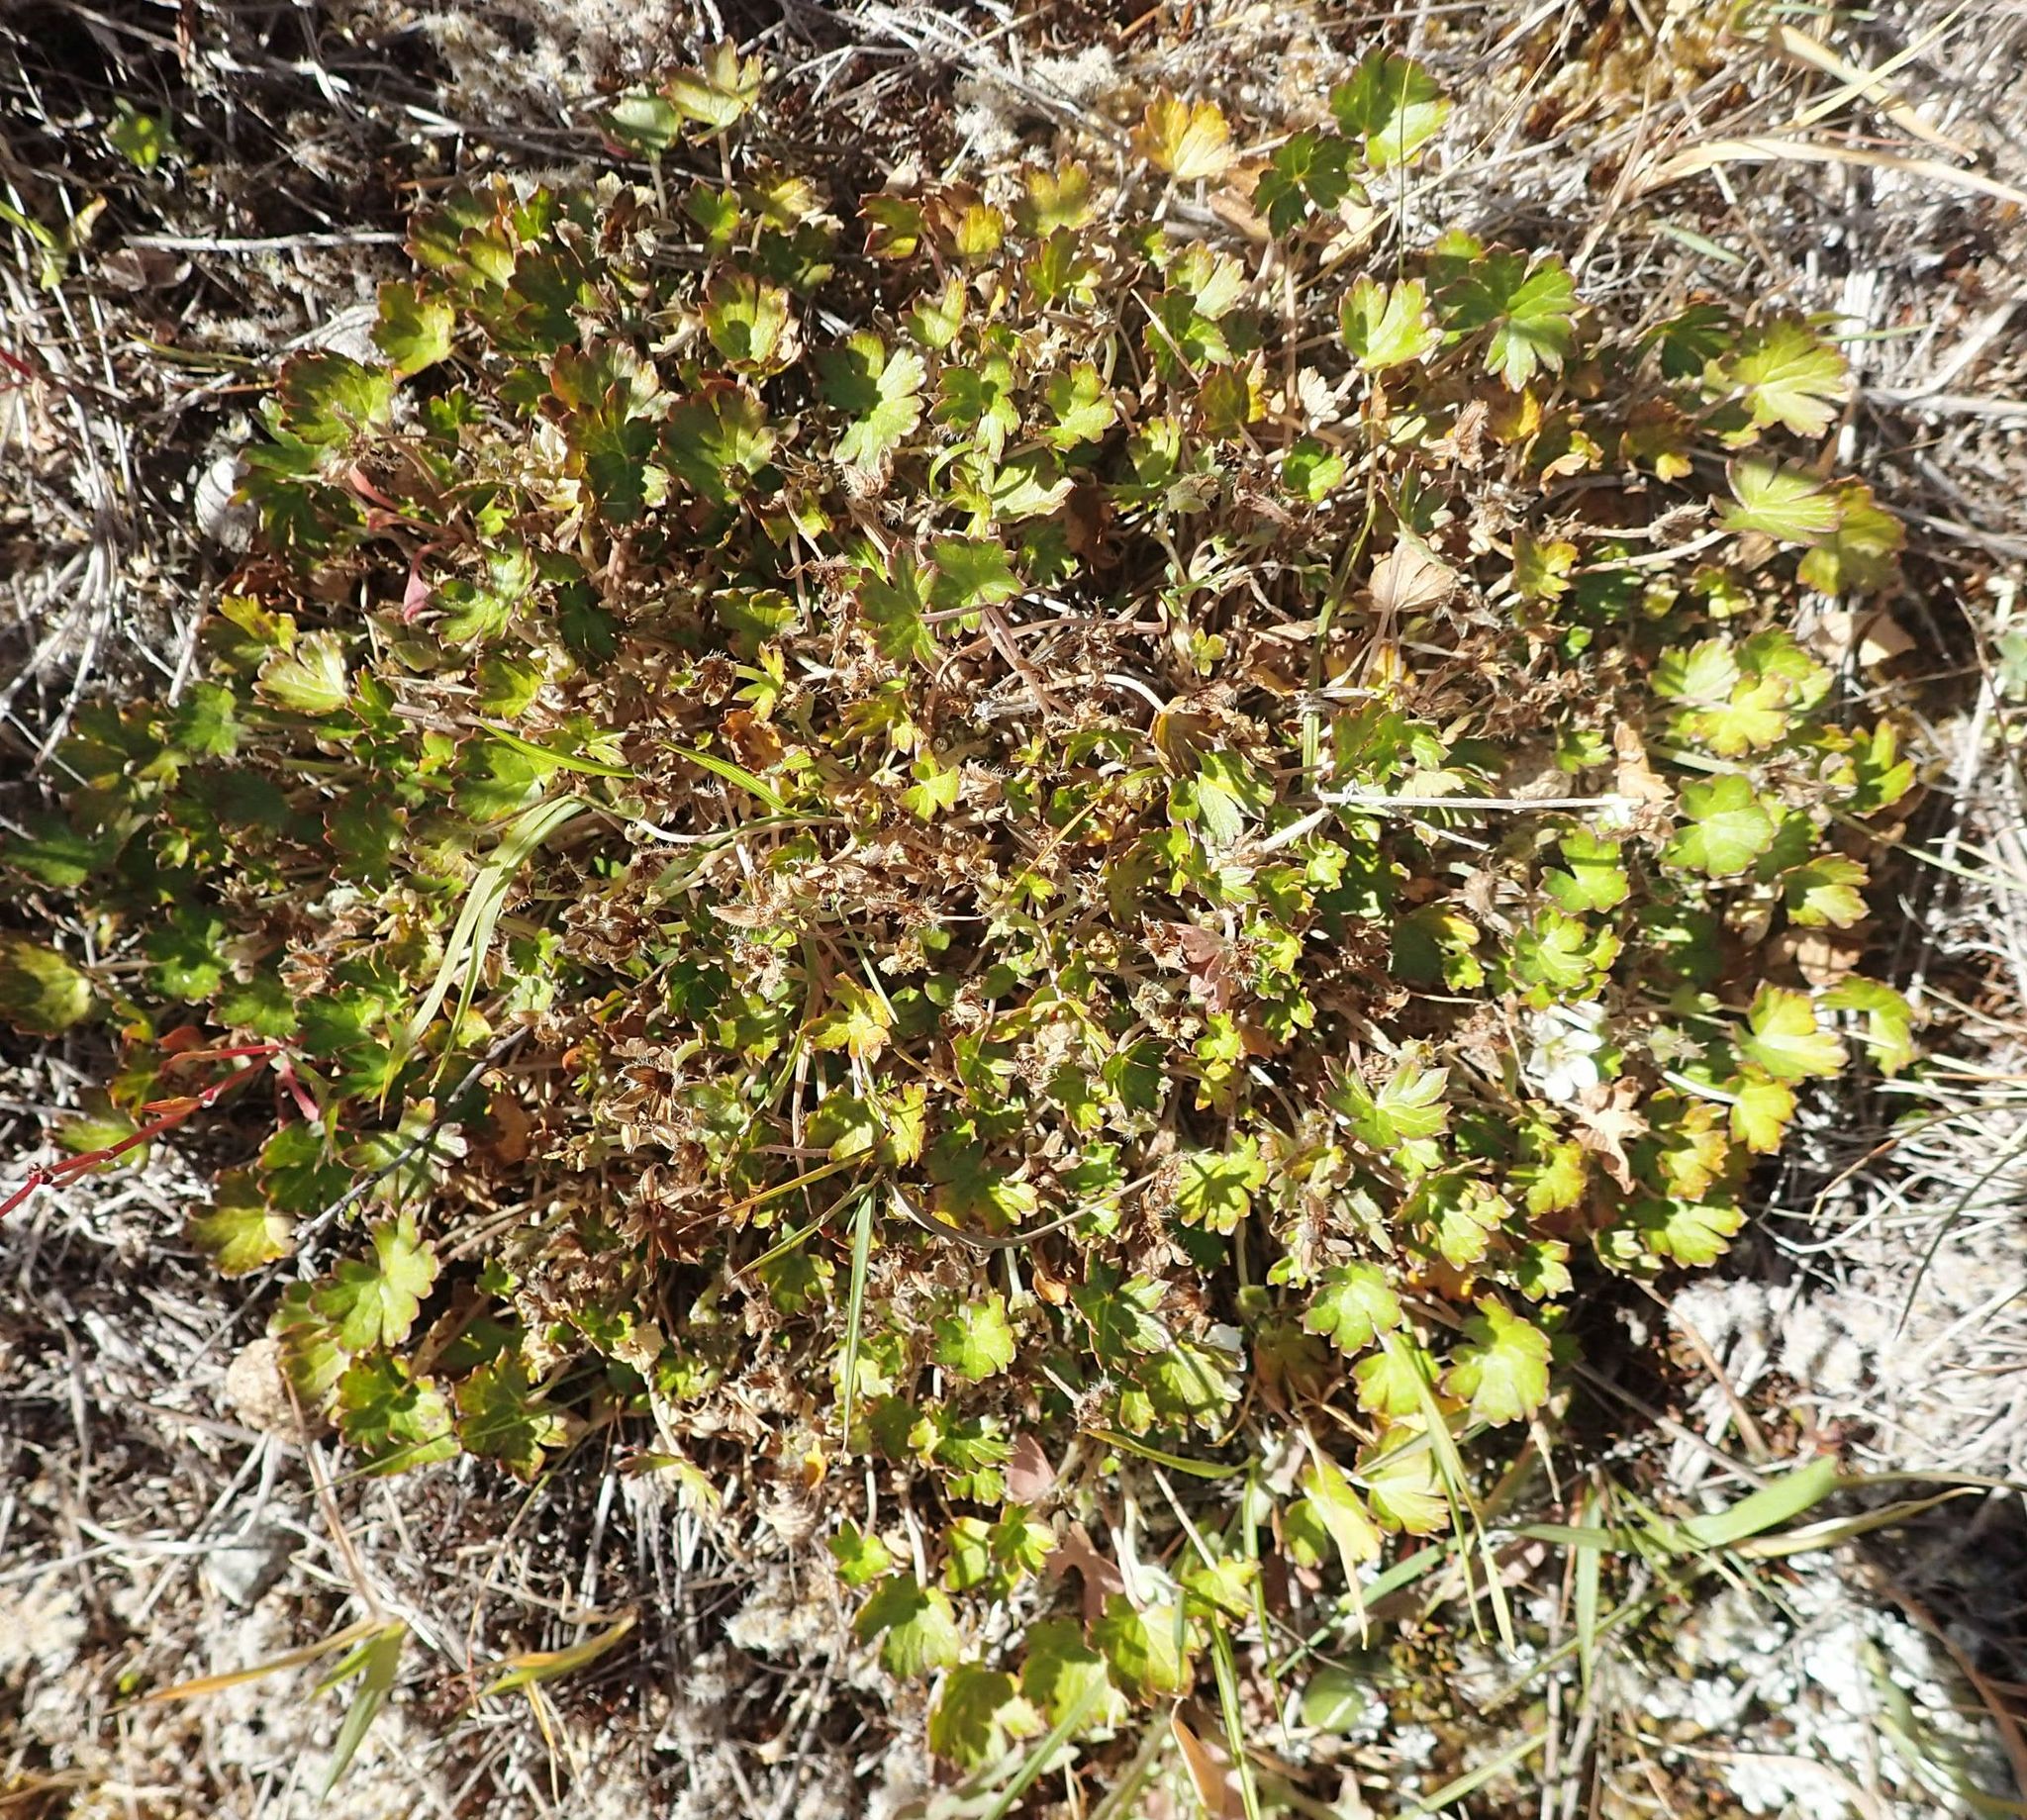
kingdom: Plantae
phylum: Tracheophyta
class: Magnoliopsida
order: Geraniales
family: Geraniaceae
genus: Geranium
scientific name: Geranium brevicaule
